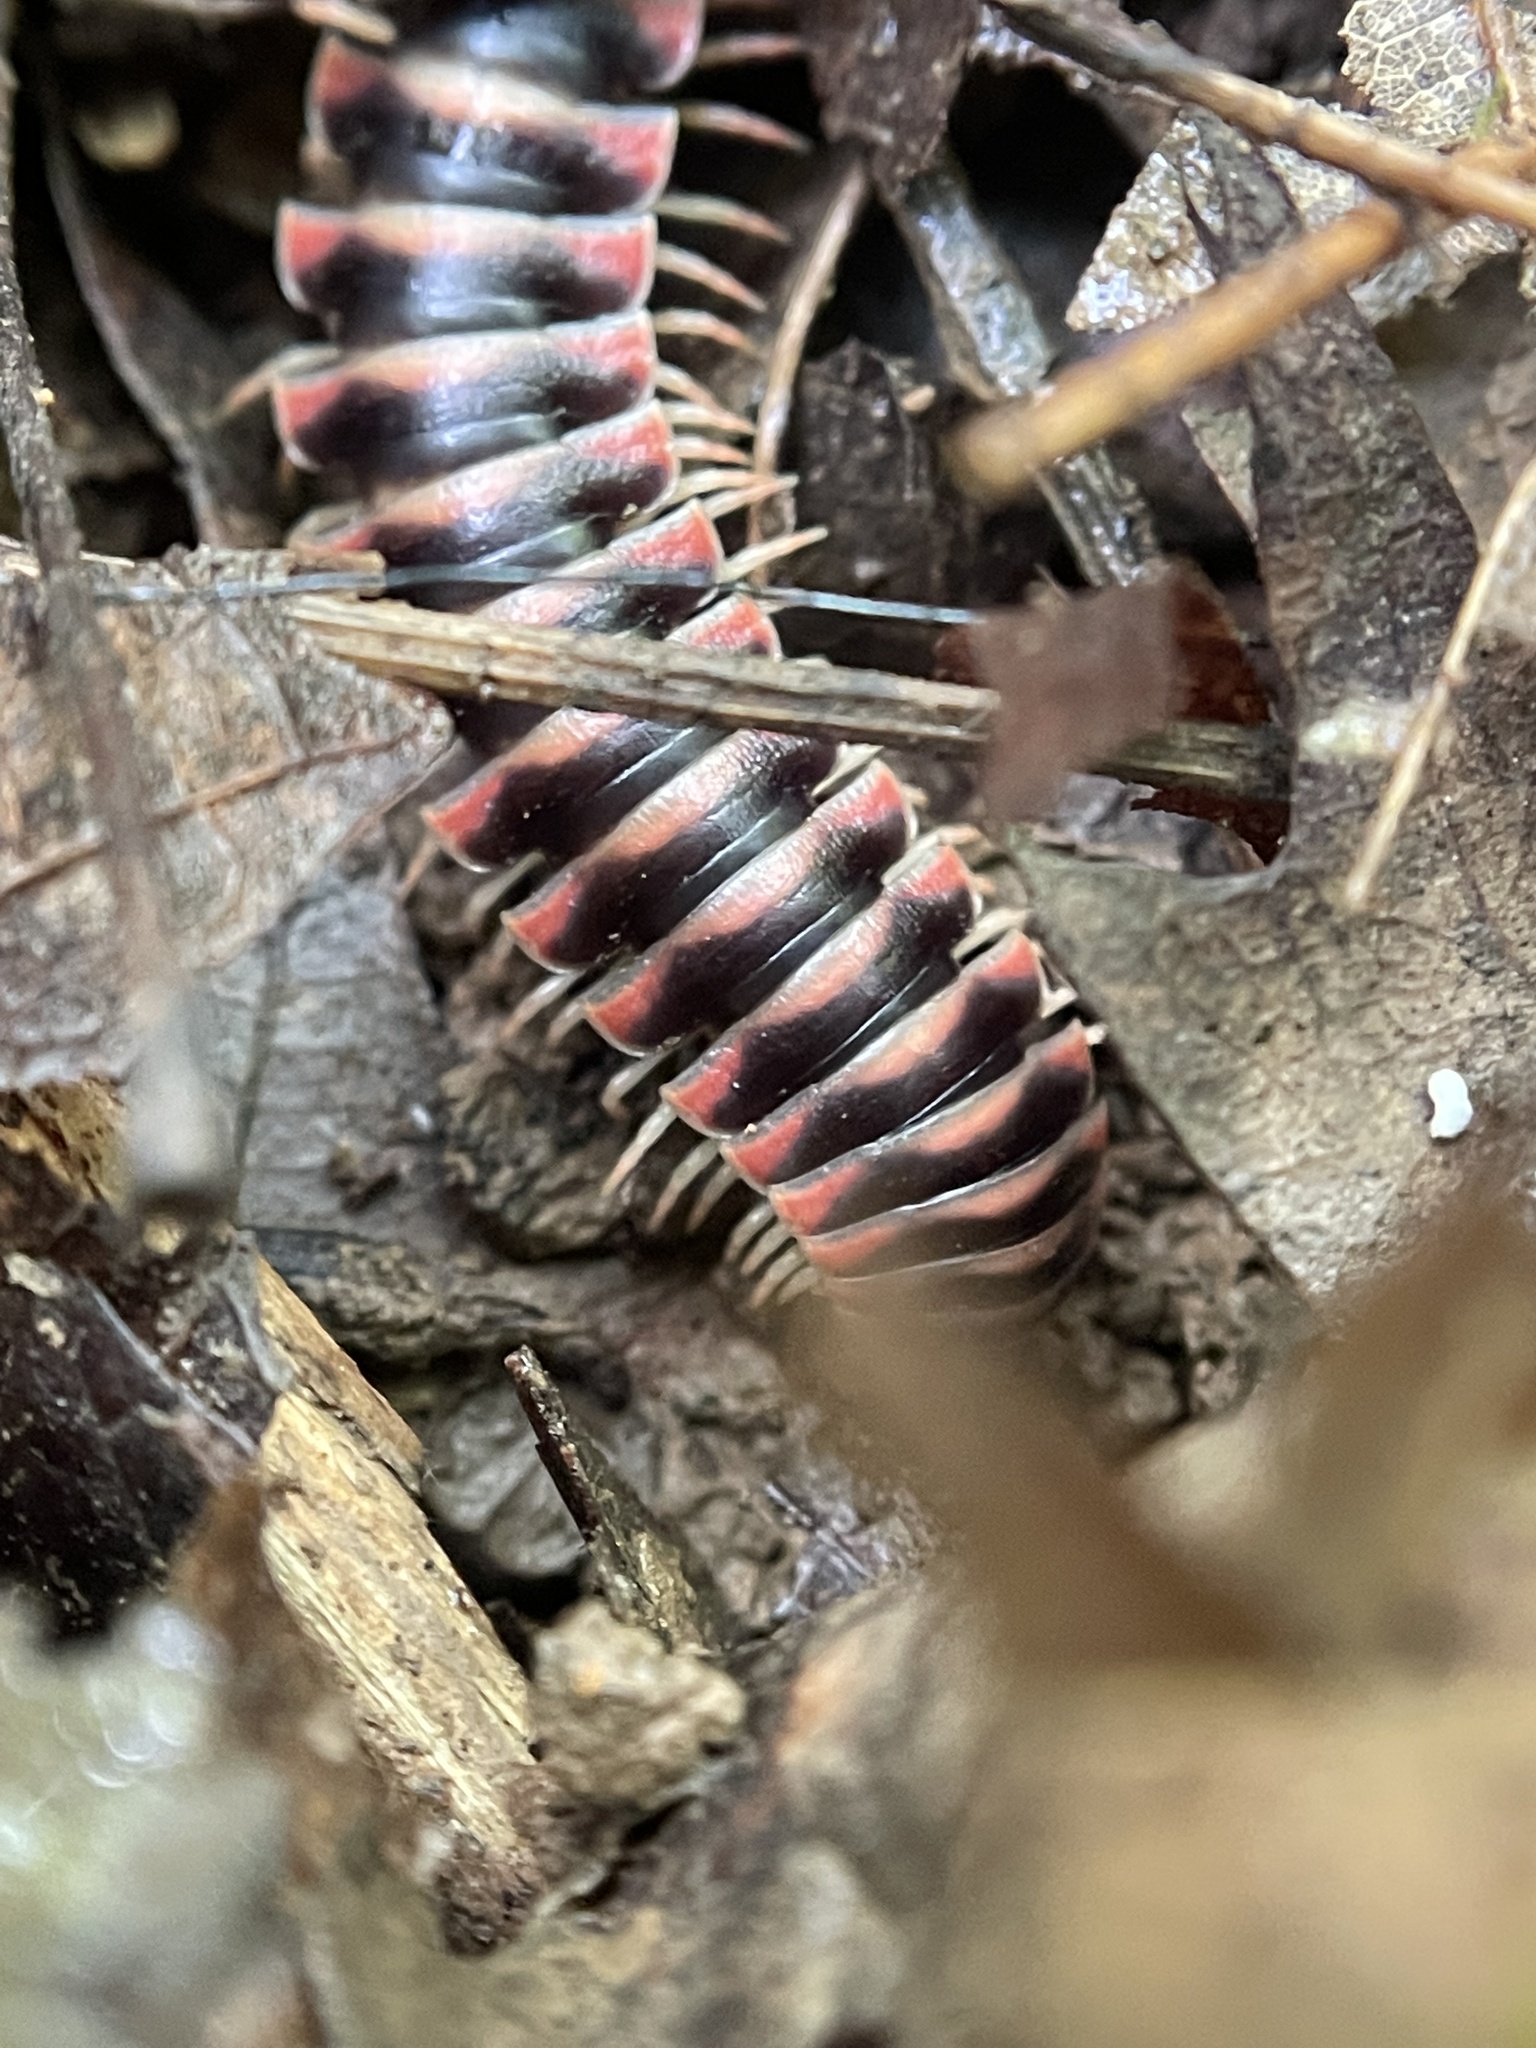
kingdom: Animalia
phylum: Arthropoda
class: Diplopoda
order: Polydesmida
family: Xystodesmidae
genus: Cherokia
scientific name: Cherokia georgiana
